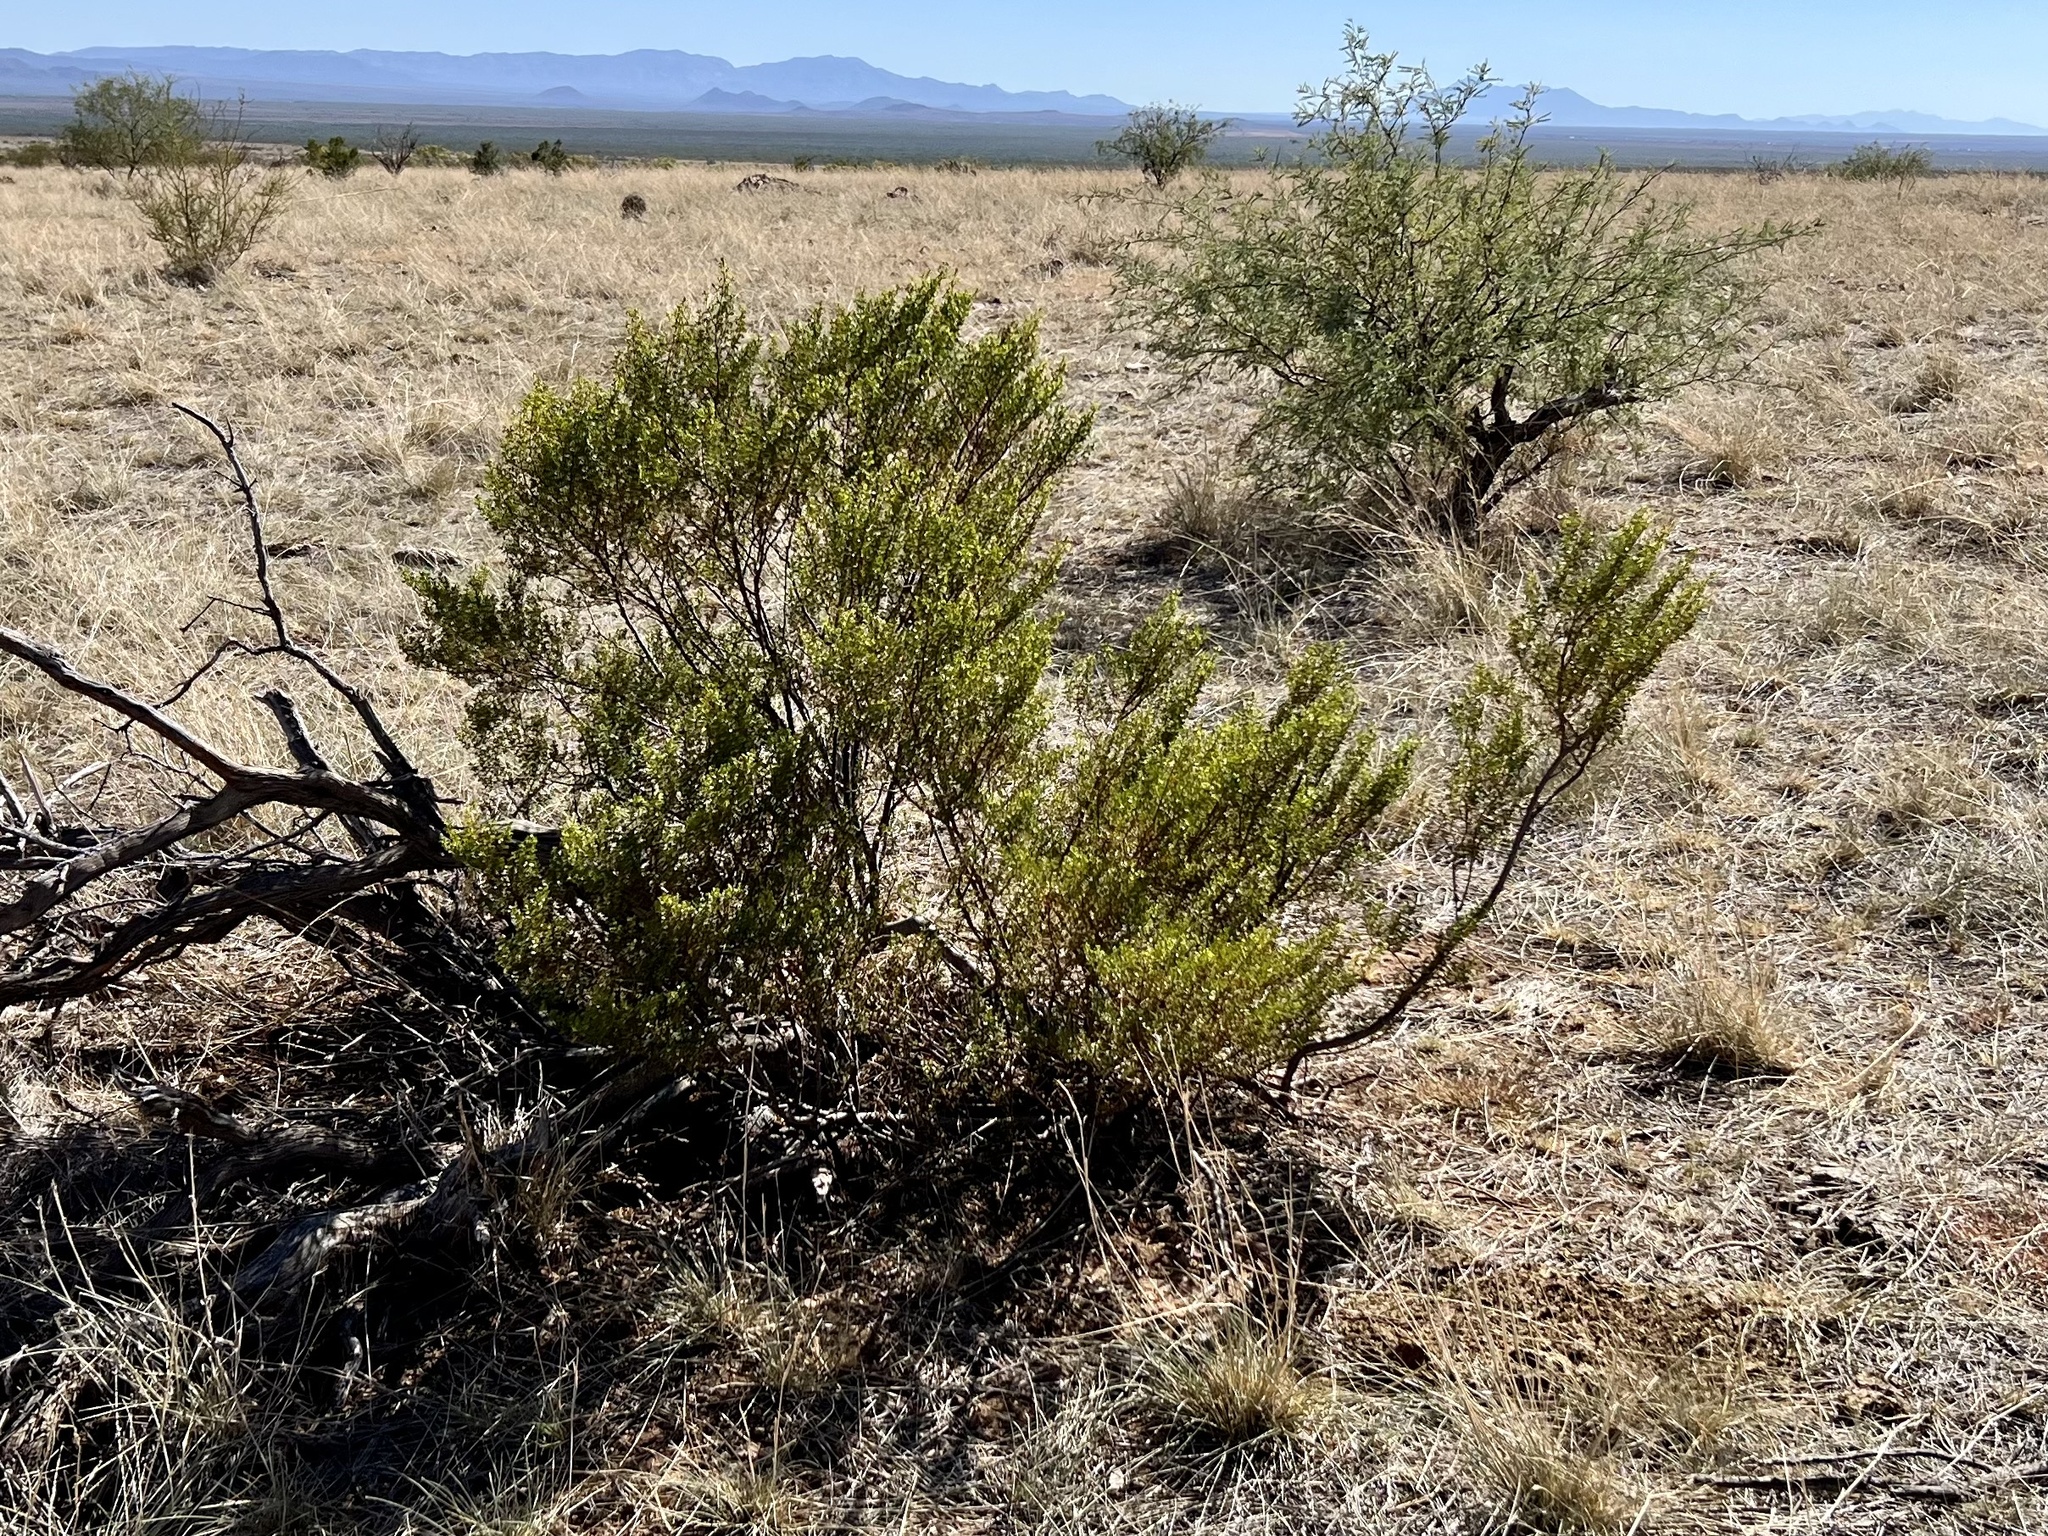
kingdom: Plantae
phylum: Tracheophyta
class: Magnoliopsida
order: Zygophyllales
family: Zygophyllaceae
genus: Larrea
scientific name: Larrea tridentata
